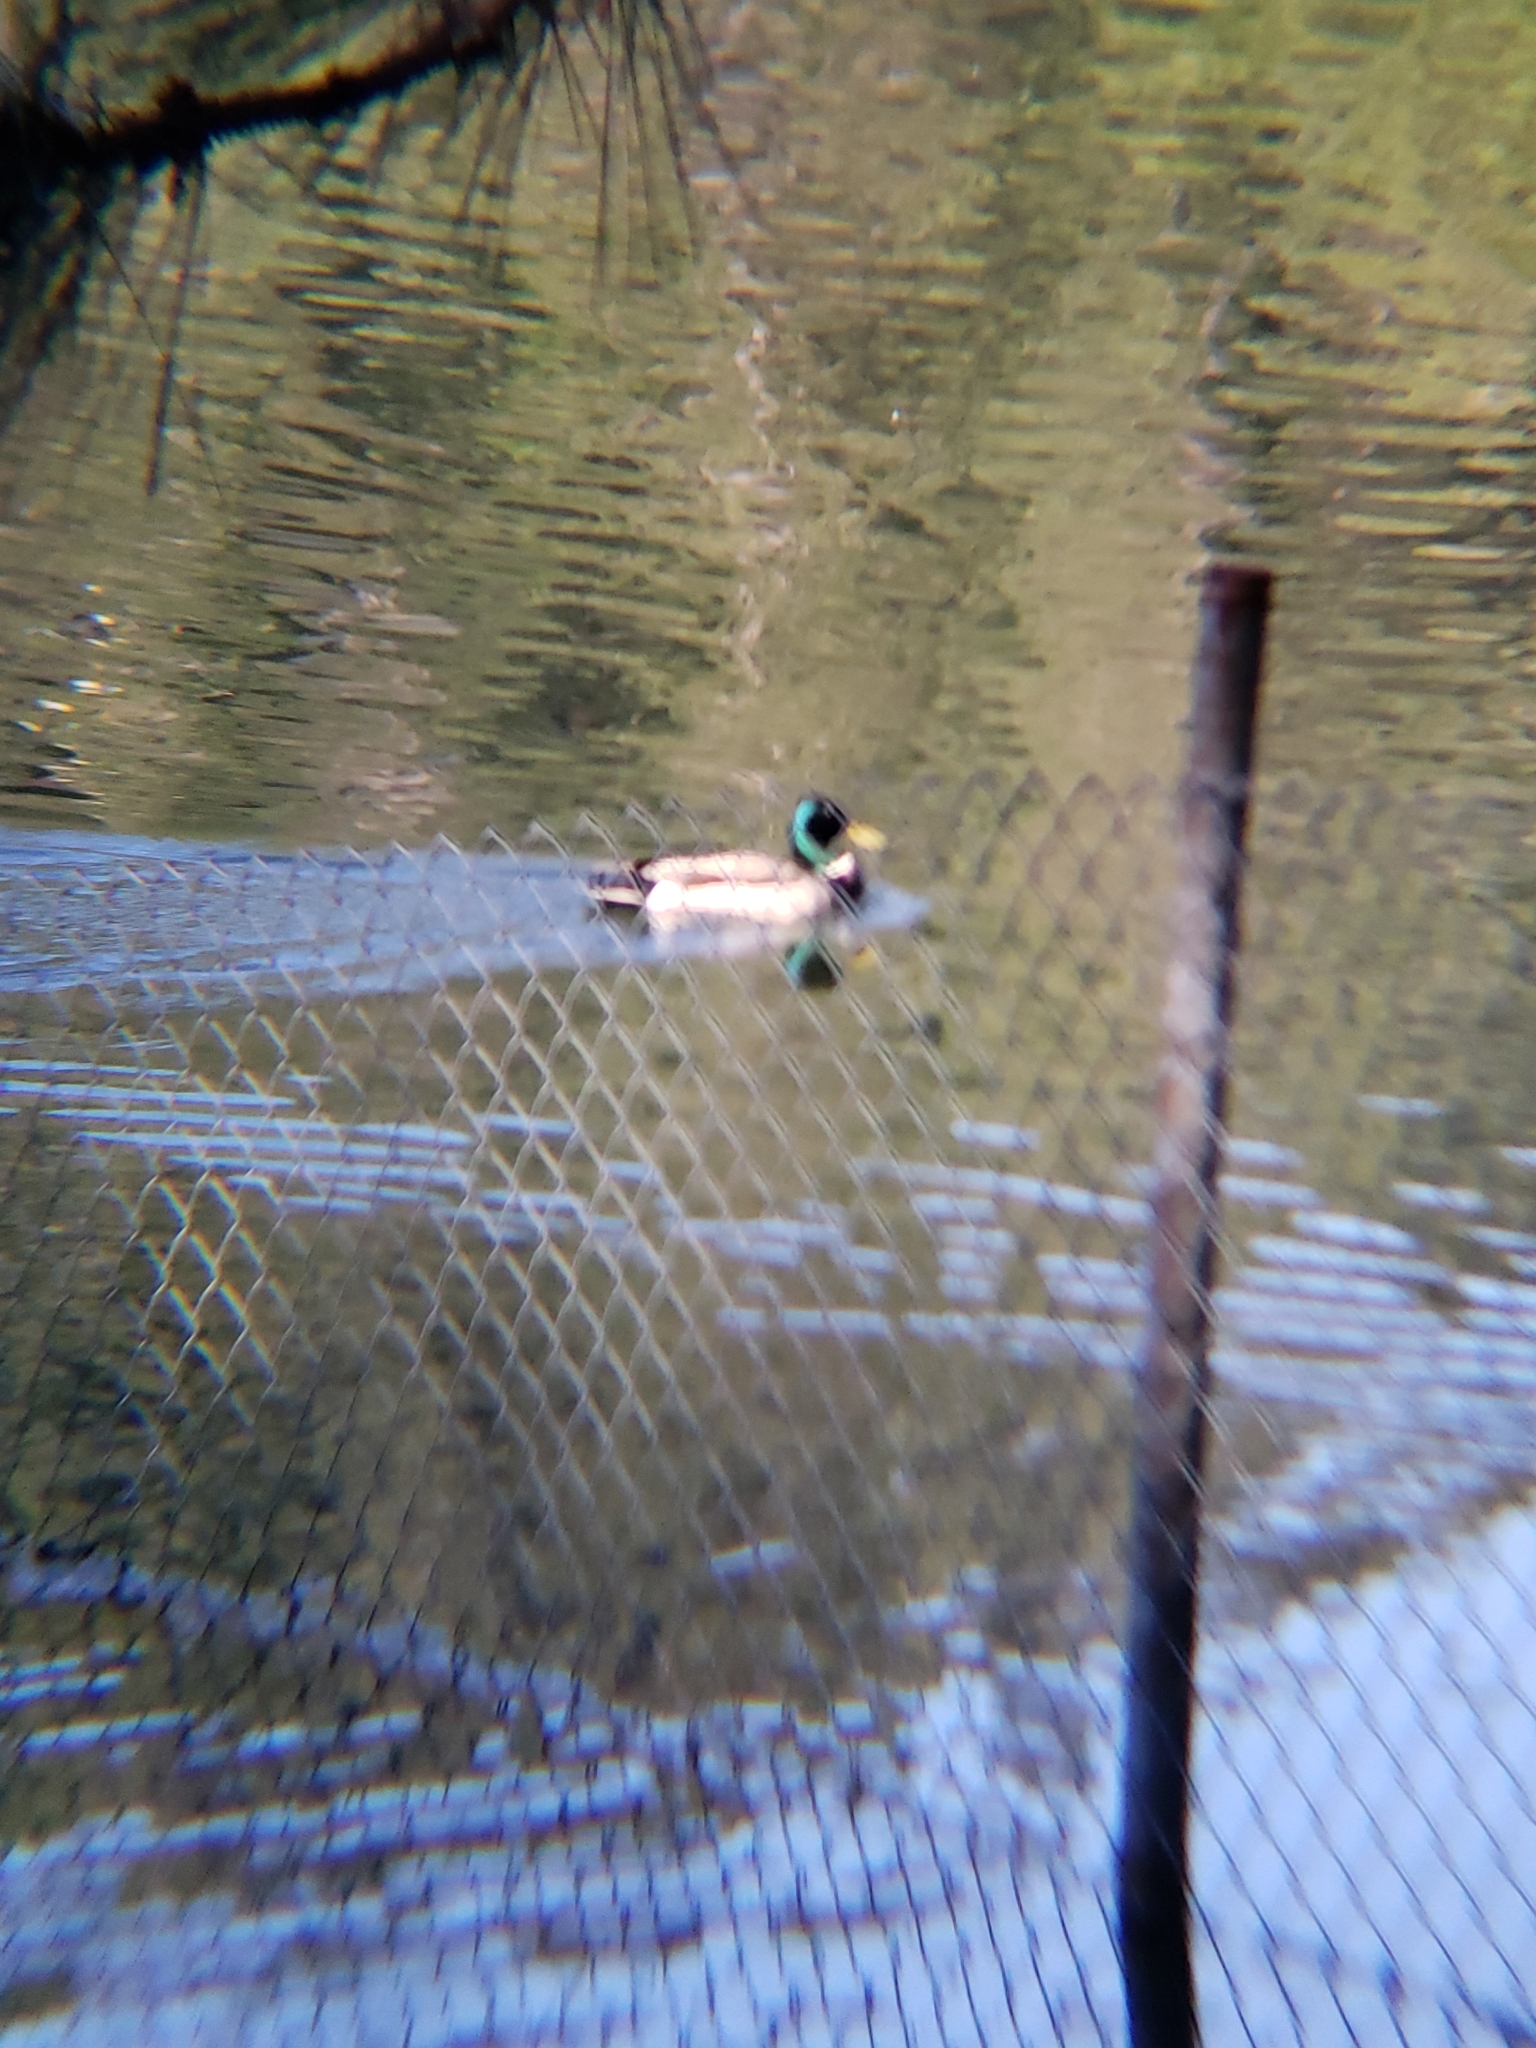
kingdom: Animalia
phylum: Chordata
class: Aves
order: Anseriformes
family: Anatidae
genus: Anas
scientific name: Anas platyrhynchos
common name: Mallard
